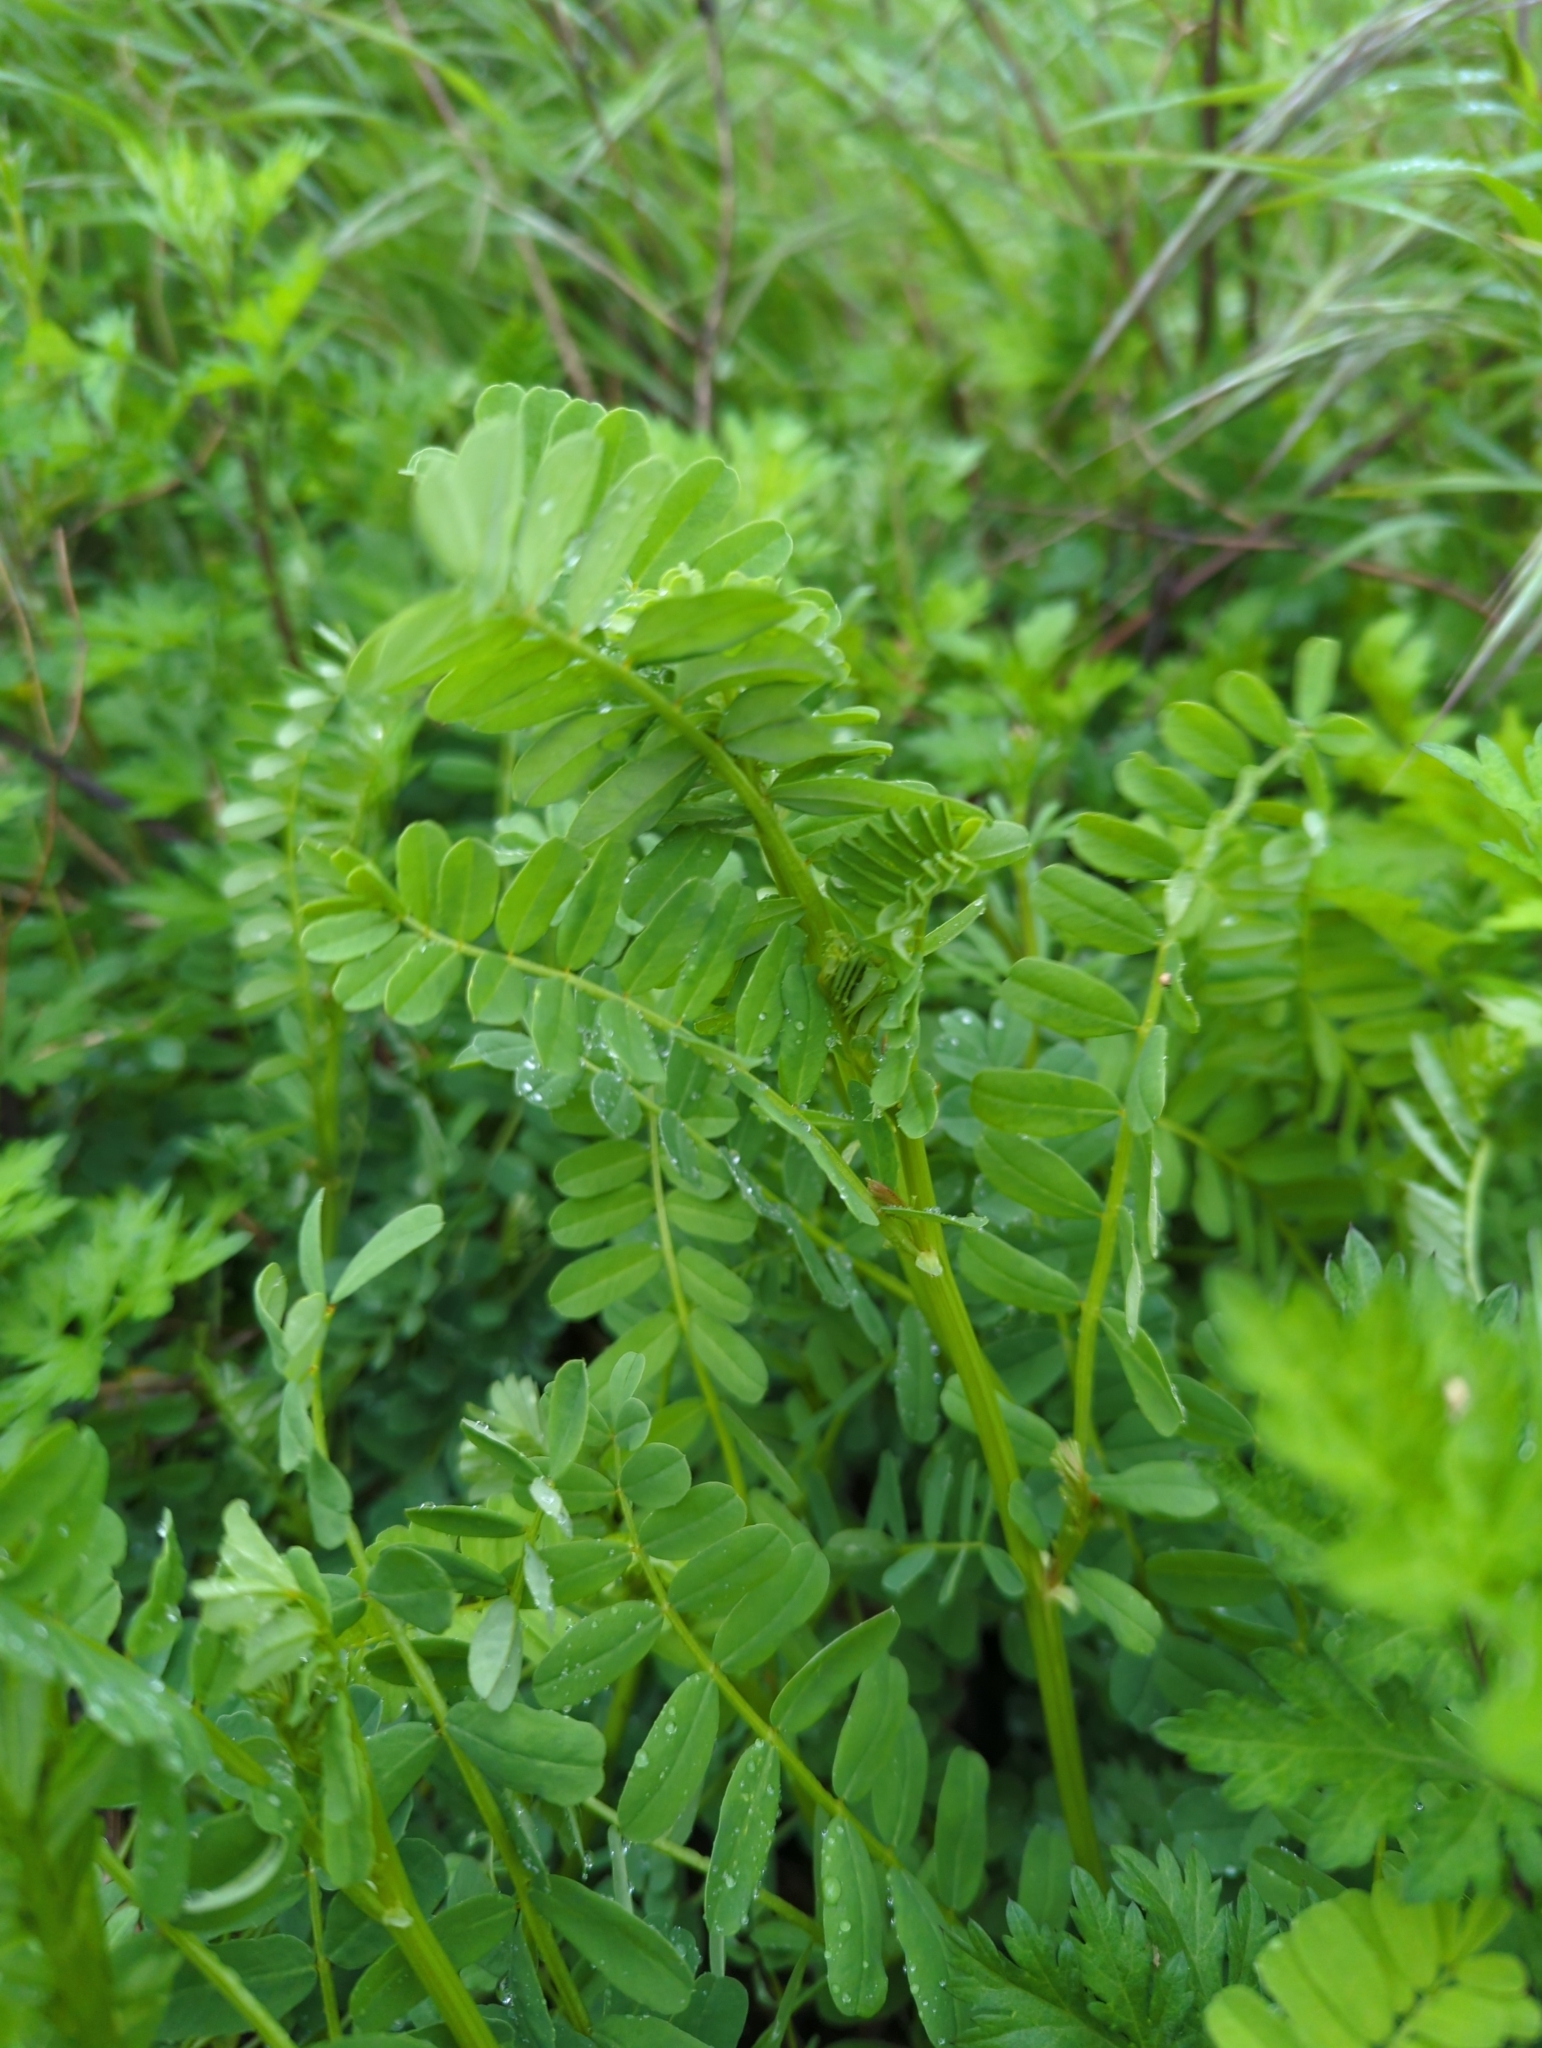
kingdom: Plantae
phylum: Tracheophyta
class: Magnoliopsida
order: Fabales
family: Fabaceae
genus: Coronilla
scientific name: Coronilla varia
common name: Crownvetch
